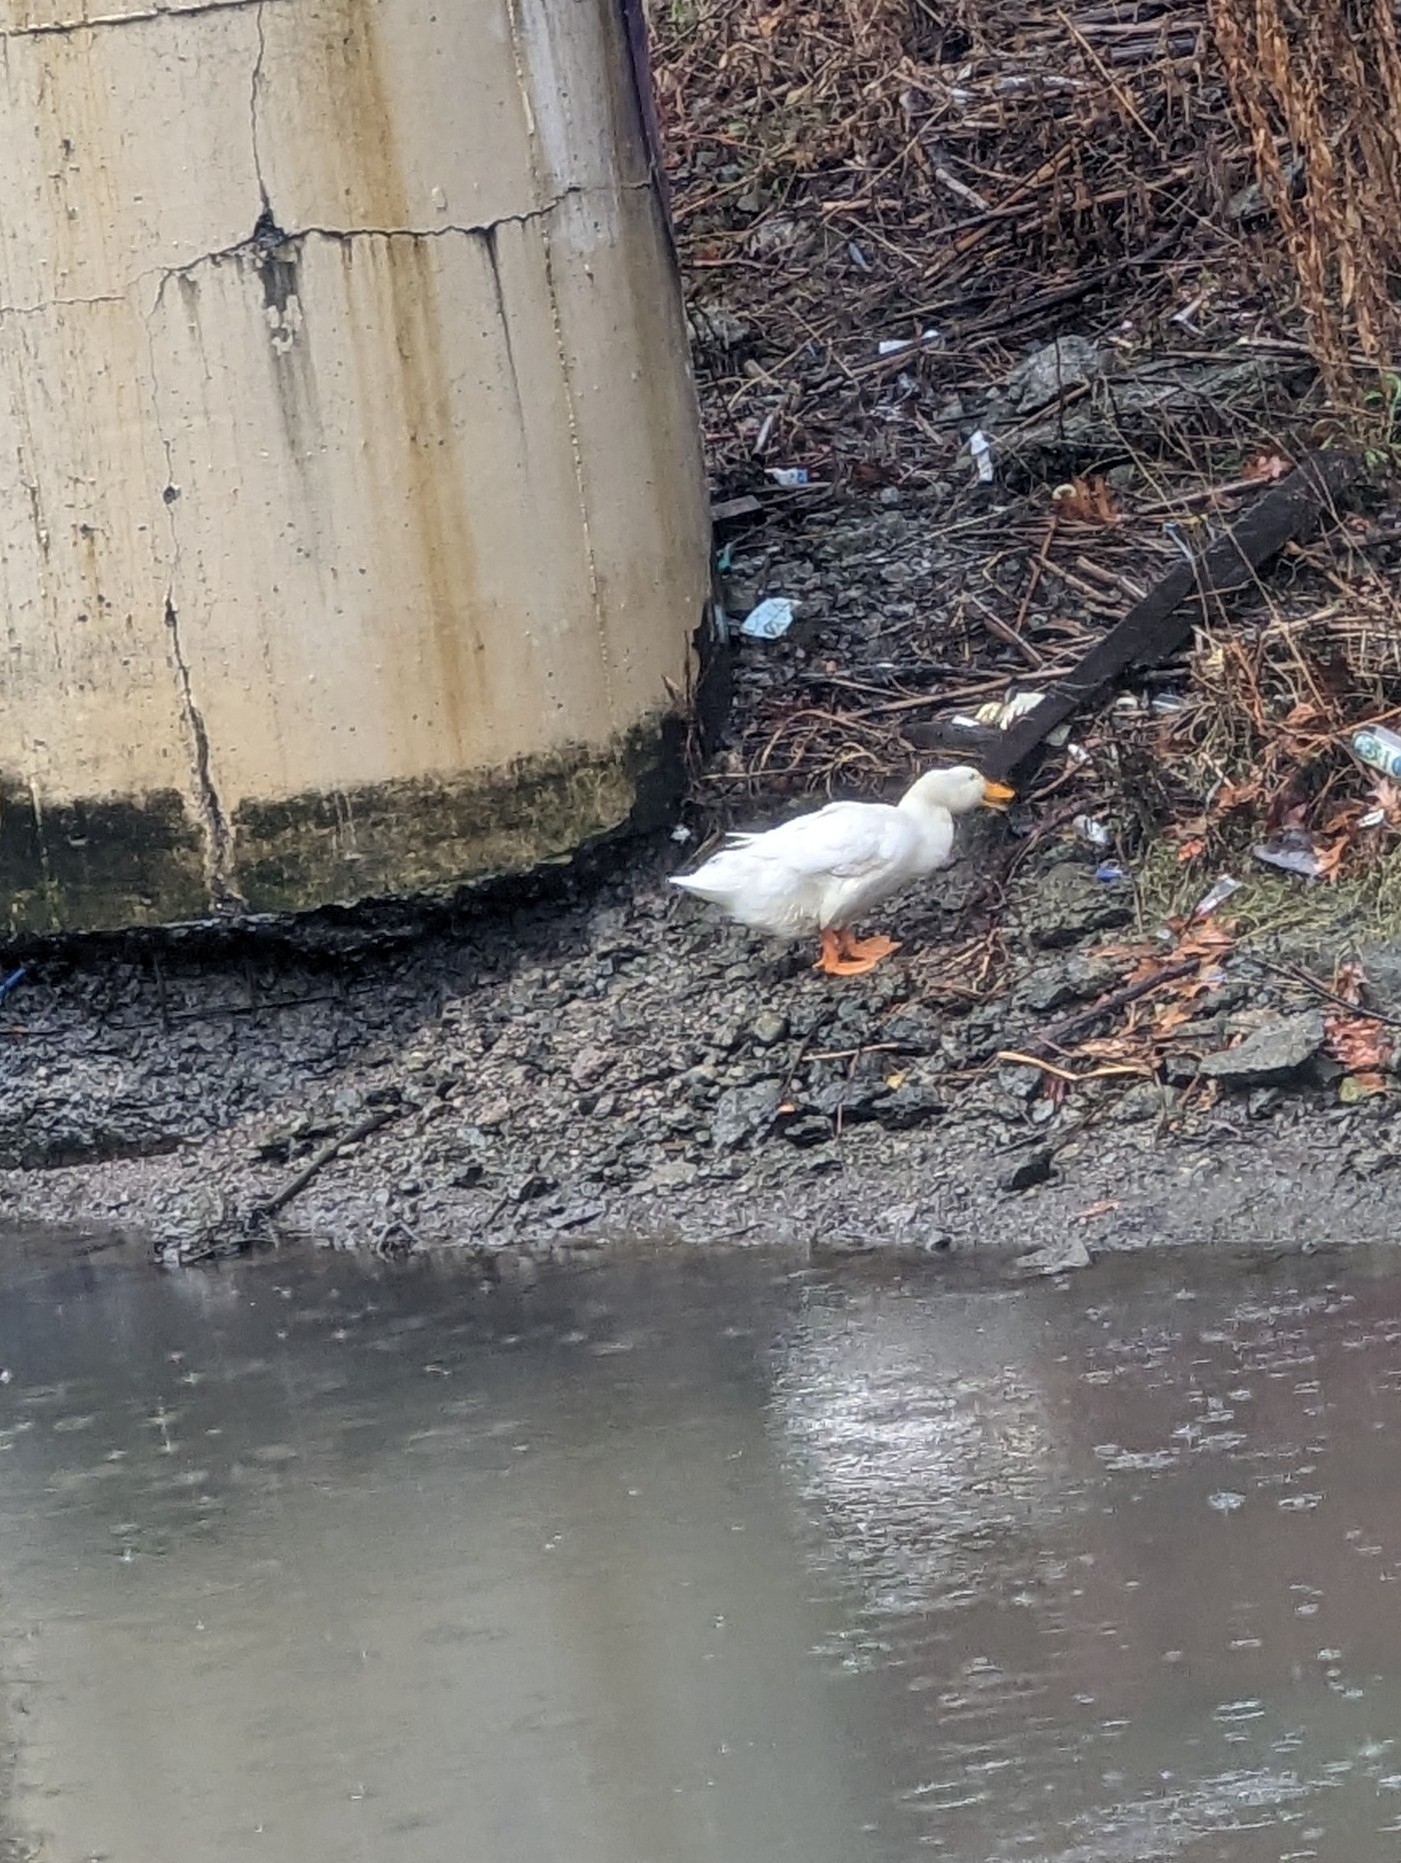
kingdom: Animalia
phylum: Chordata
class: Aves
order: Anseriformes
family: Anatidae
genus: Anas
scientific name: Anas platyrhynchos
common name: Mallard
